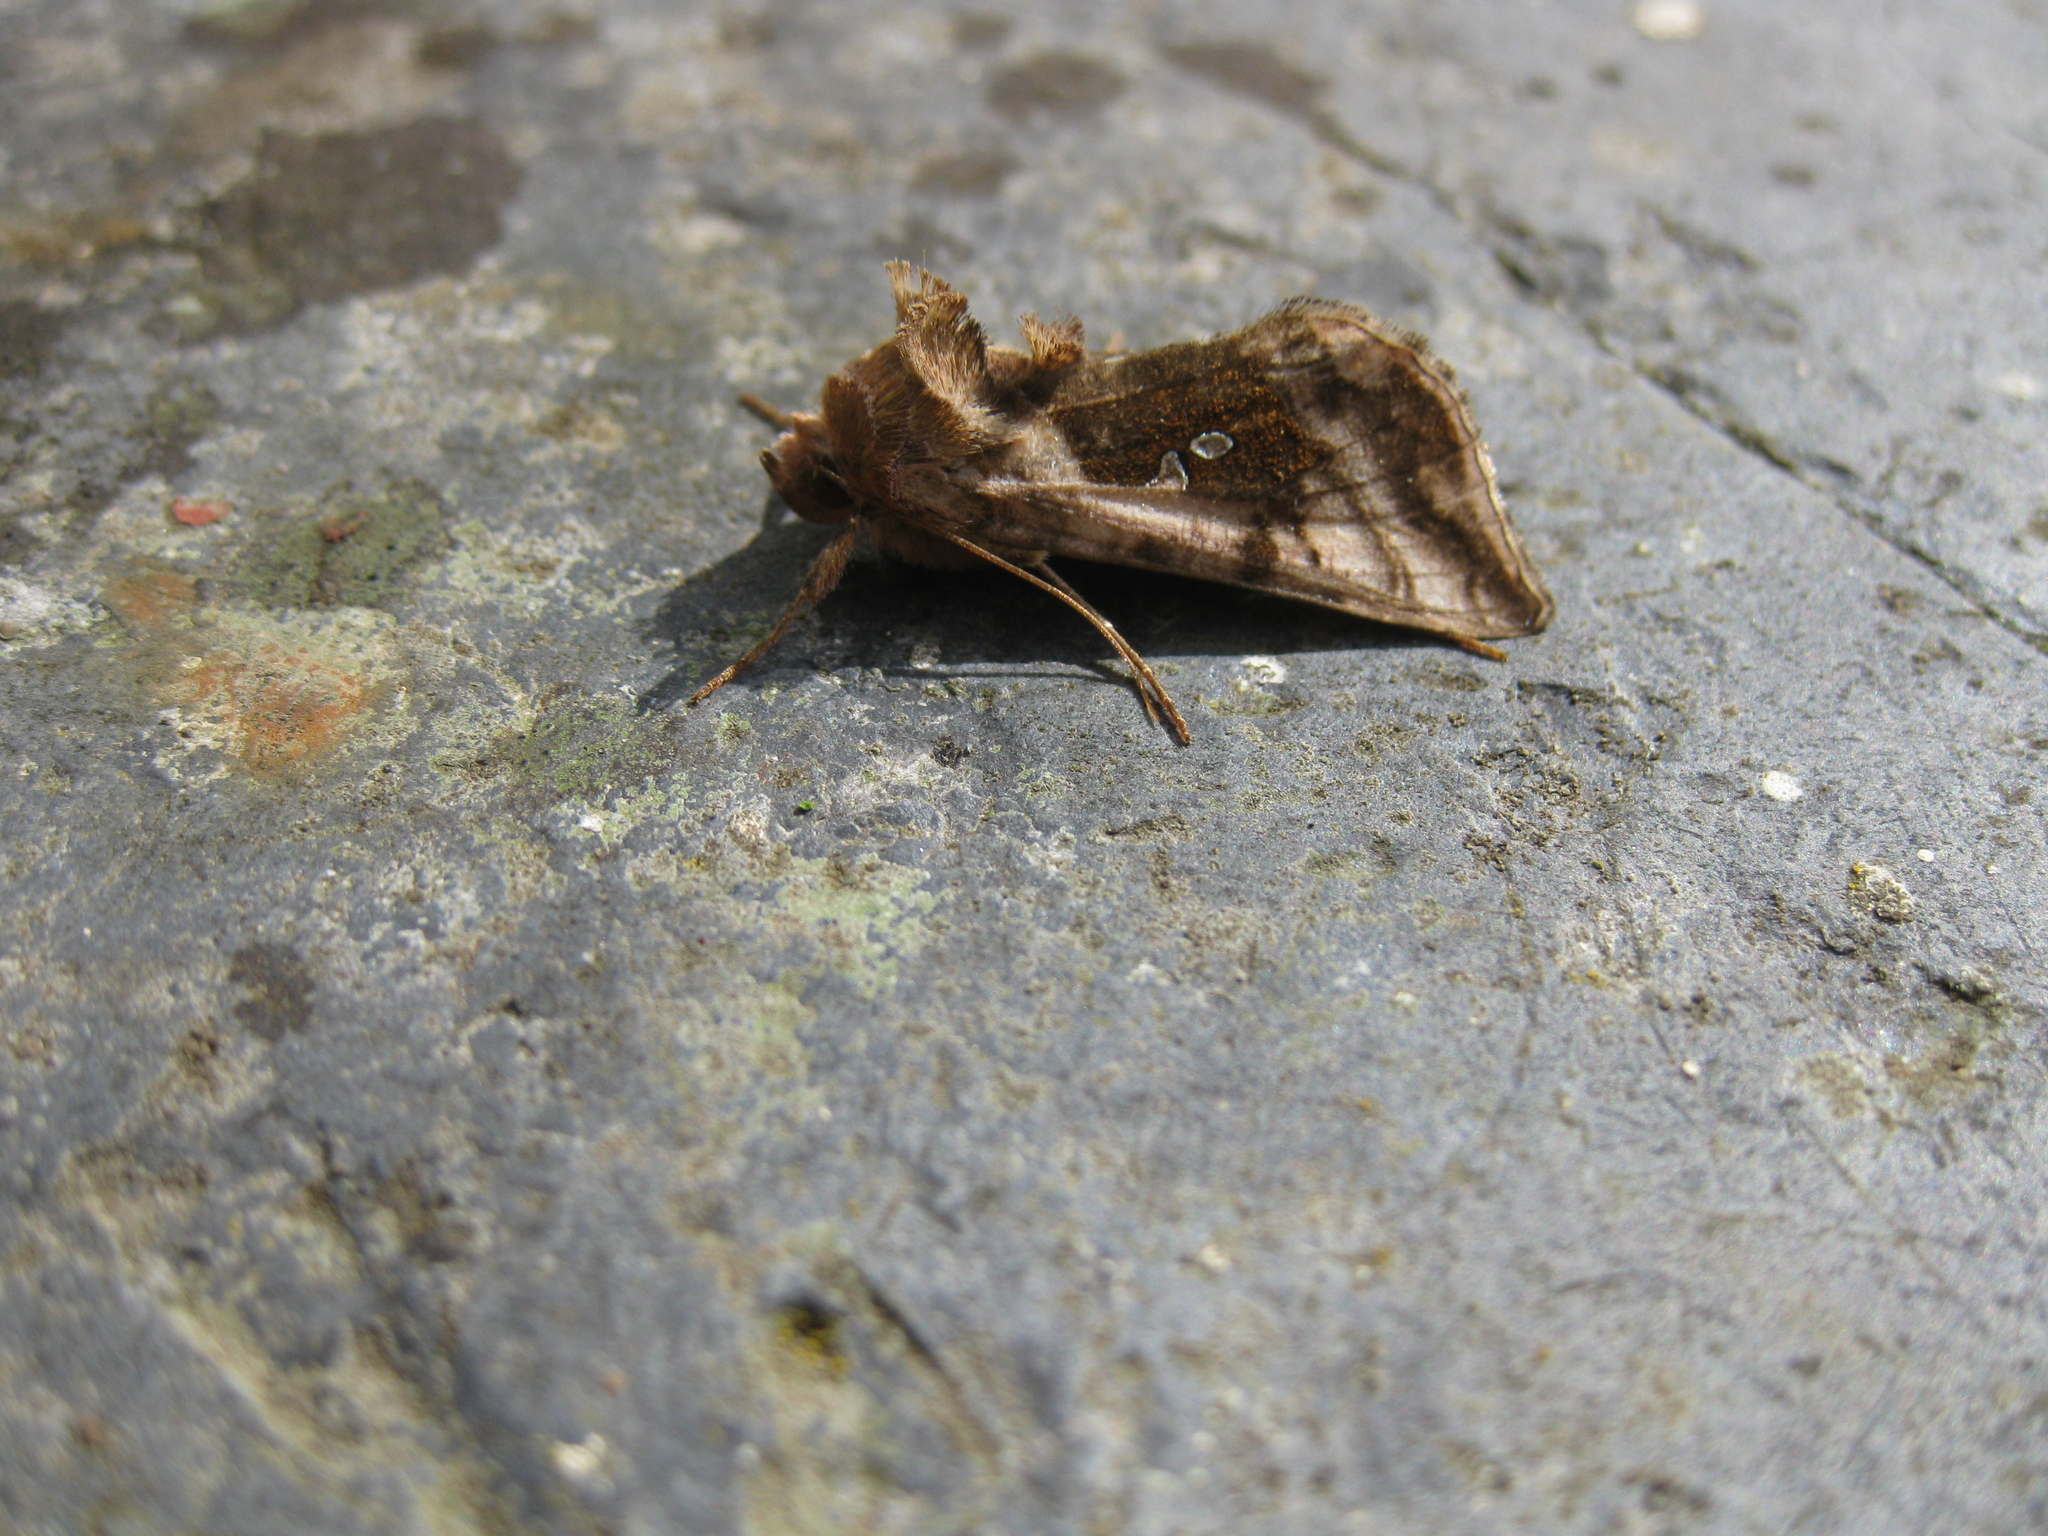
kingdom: Animalia
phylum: Arthropoda
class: Insecta
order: Lepidoptera
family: Noctuidae
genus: Autographa
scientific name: Autographa jota
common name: Plain golden y
